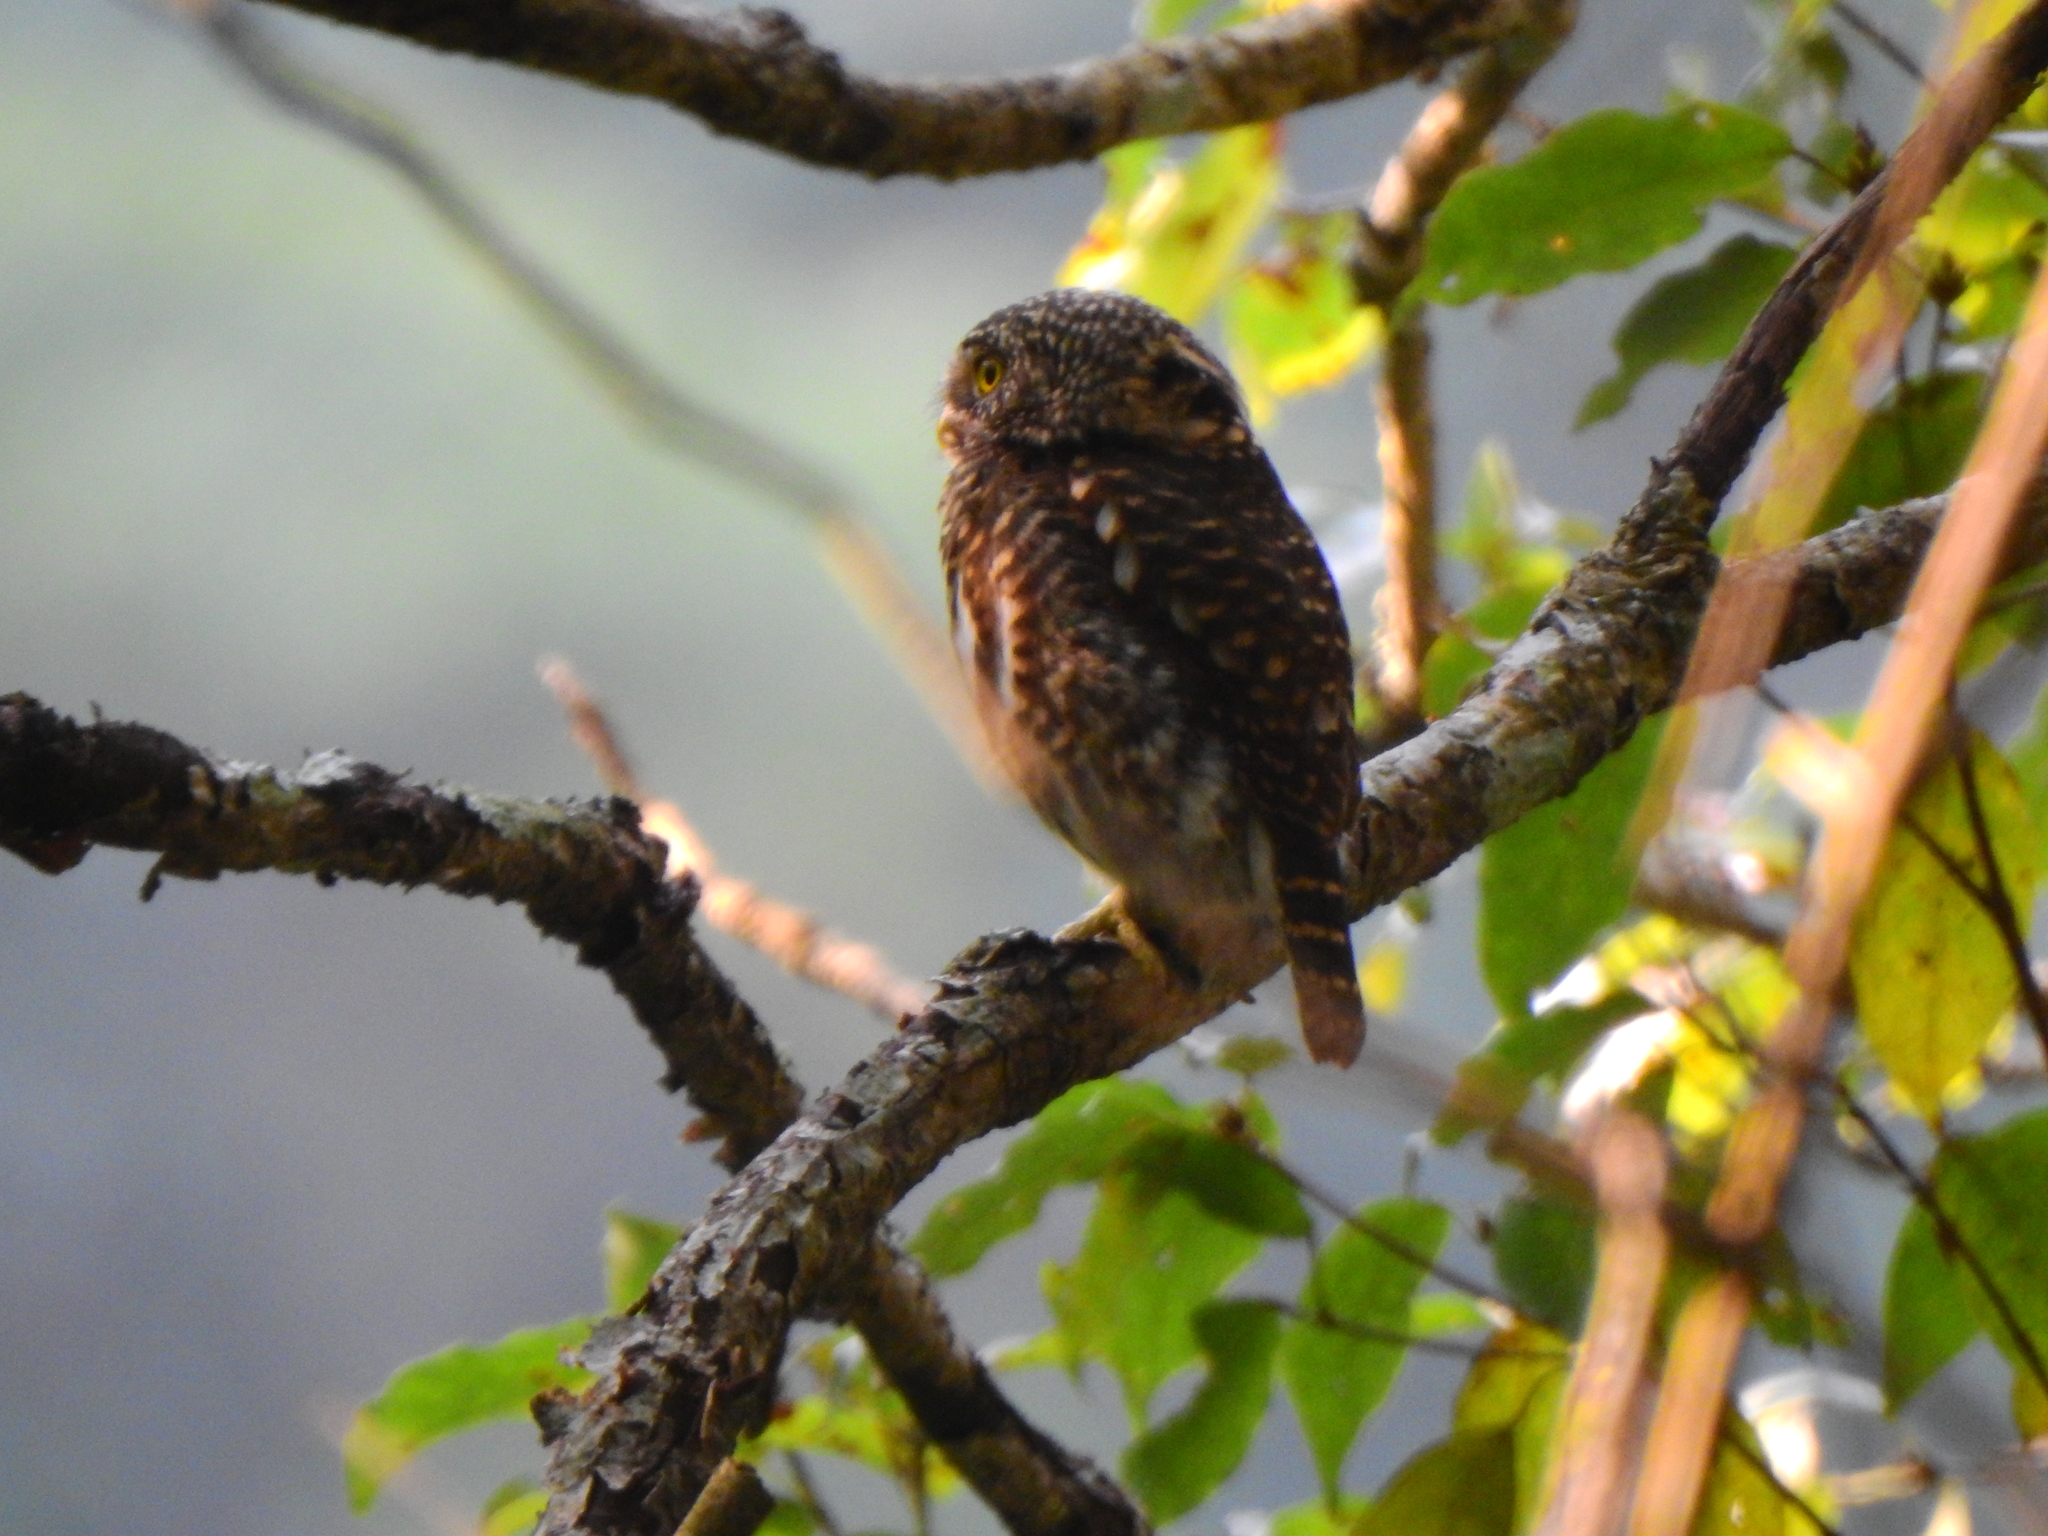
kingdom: Animalia
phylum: Chordata
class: Aves
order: Strigiformes
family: Strigidae
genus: Glaucidium
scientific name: Glaucidium brodiei
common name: Collared owlet
